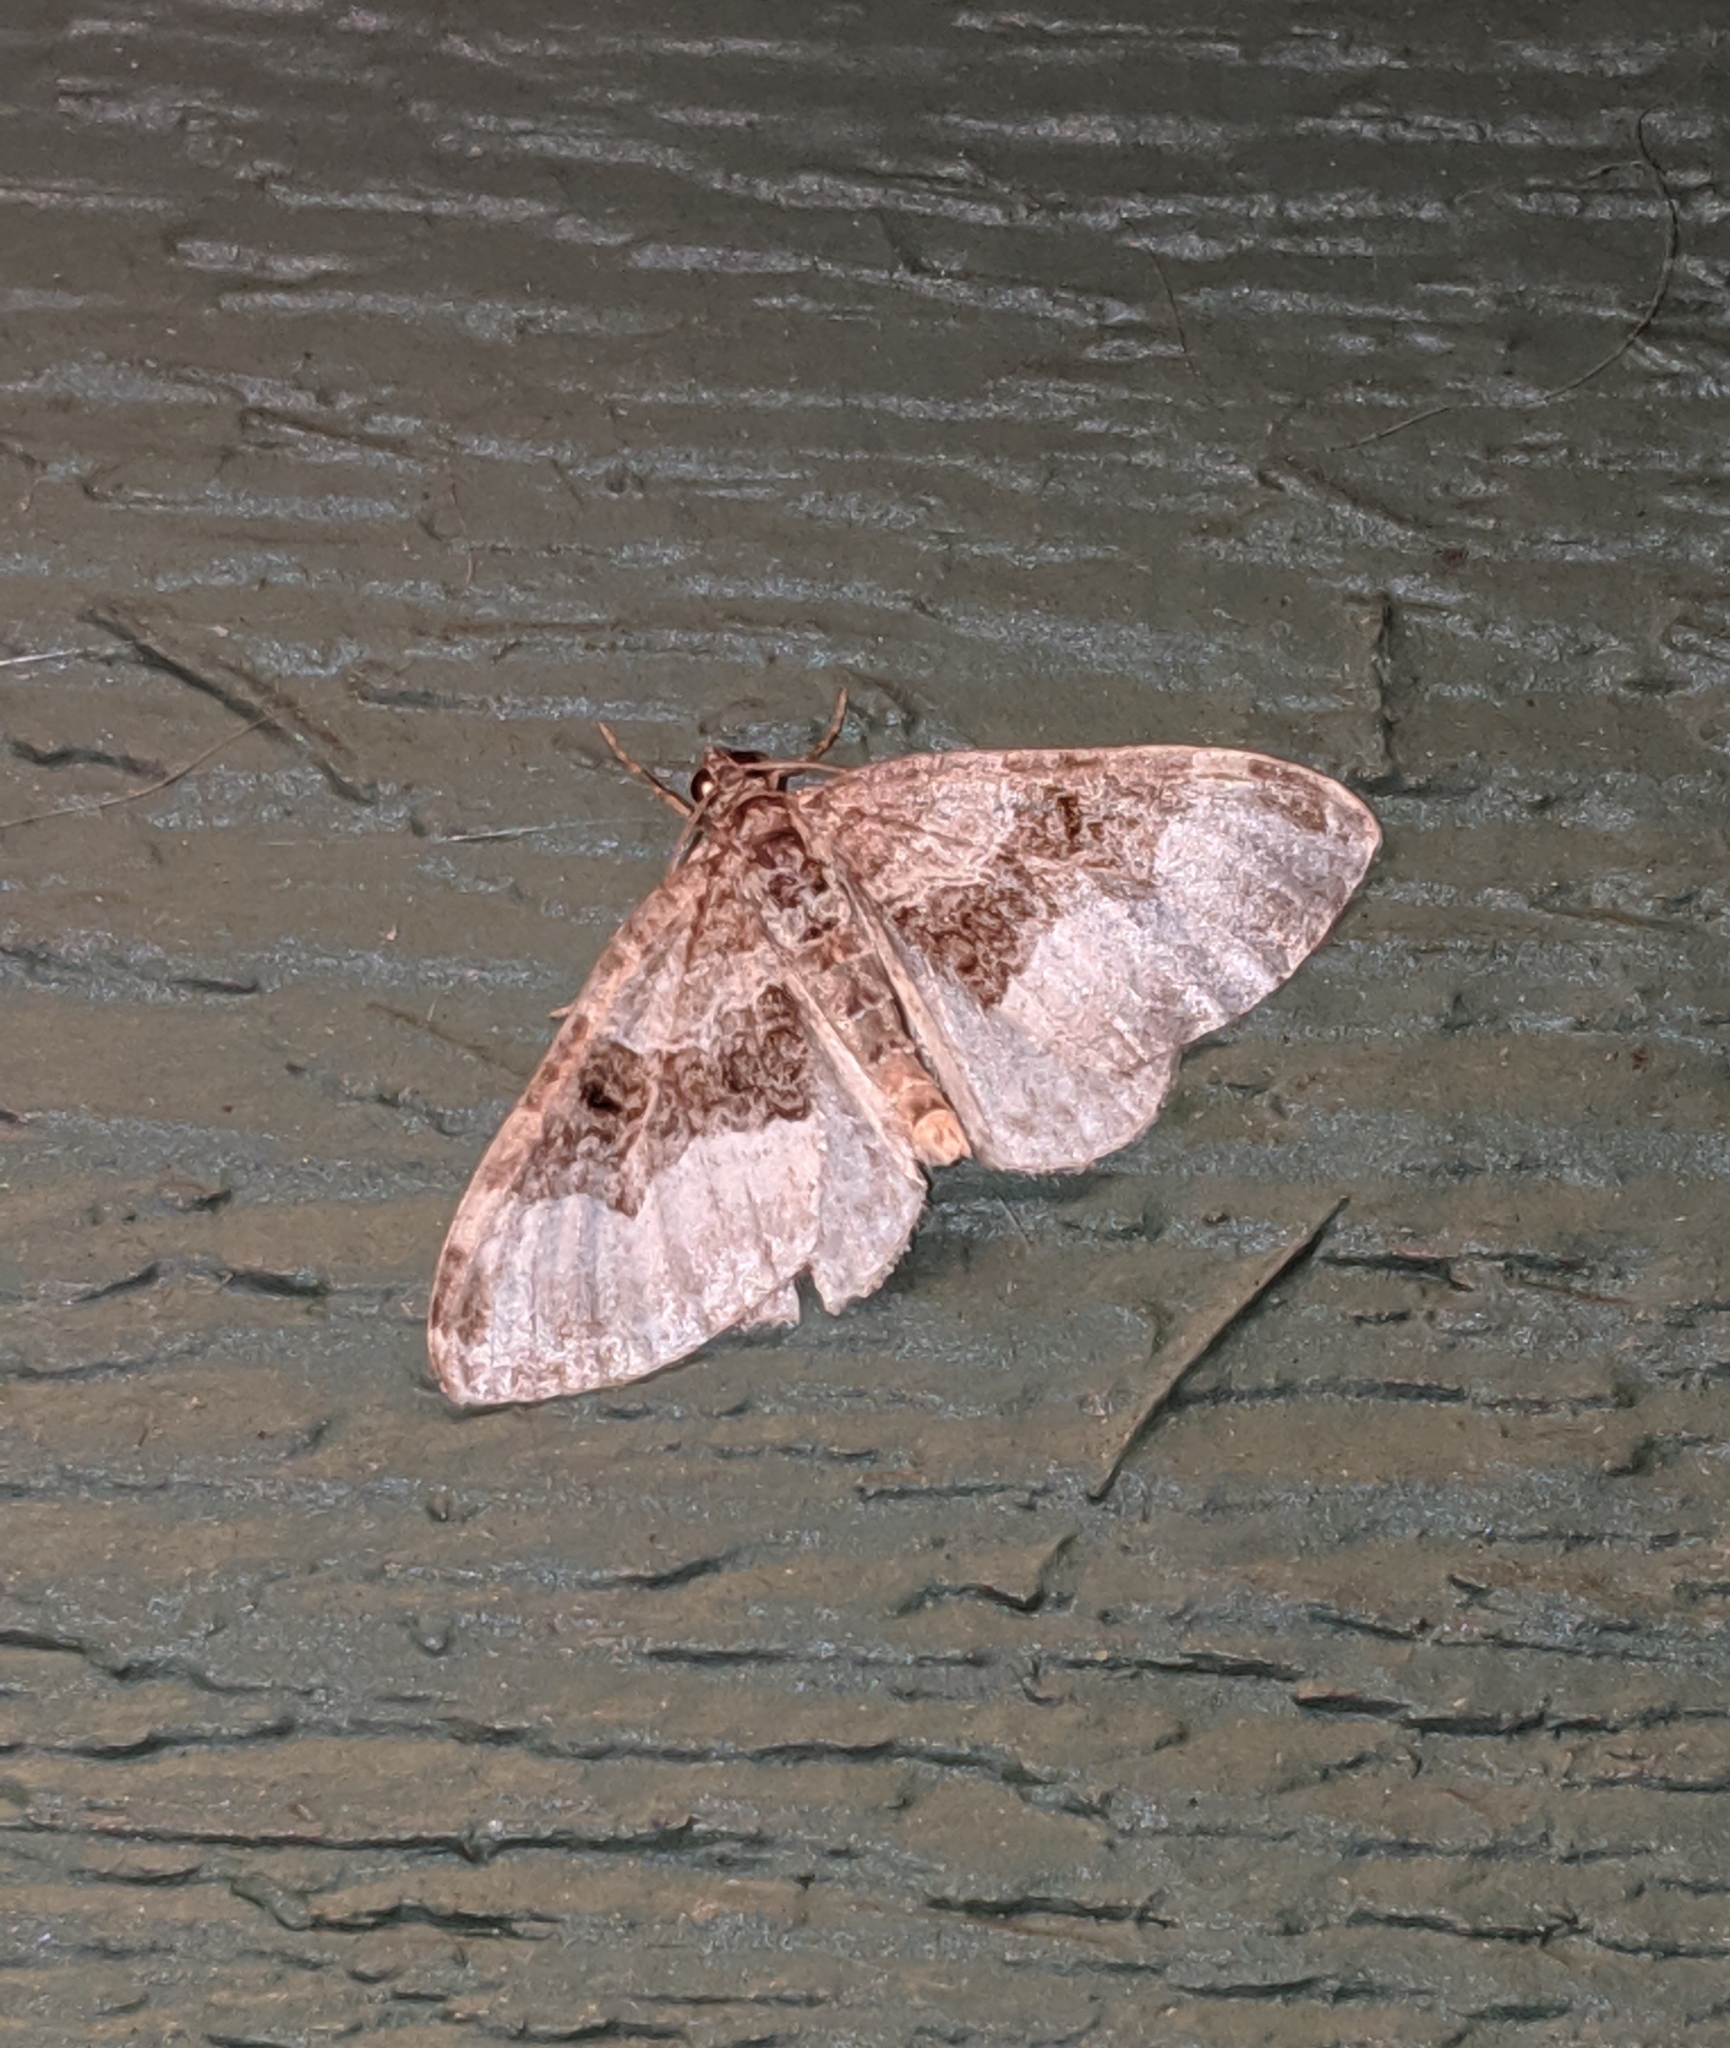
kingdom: Animalia
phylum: Arthropoda
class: Insecta
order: Lepidoptera
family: Geometridae
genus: Euphyia
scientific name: Euphyia intermediata
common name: Sharp-angled carpet
